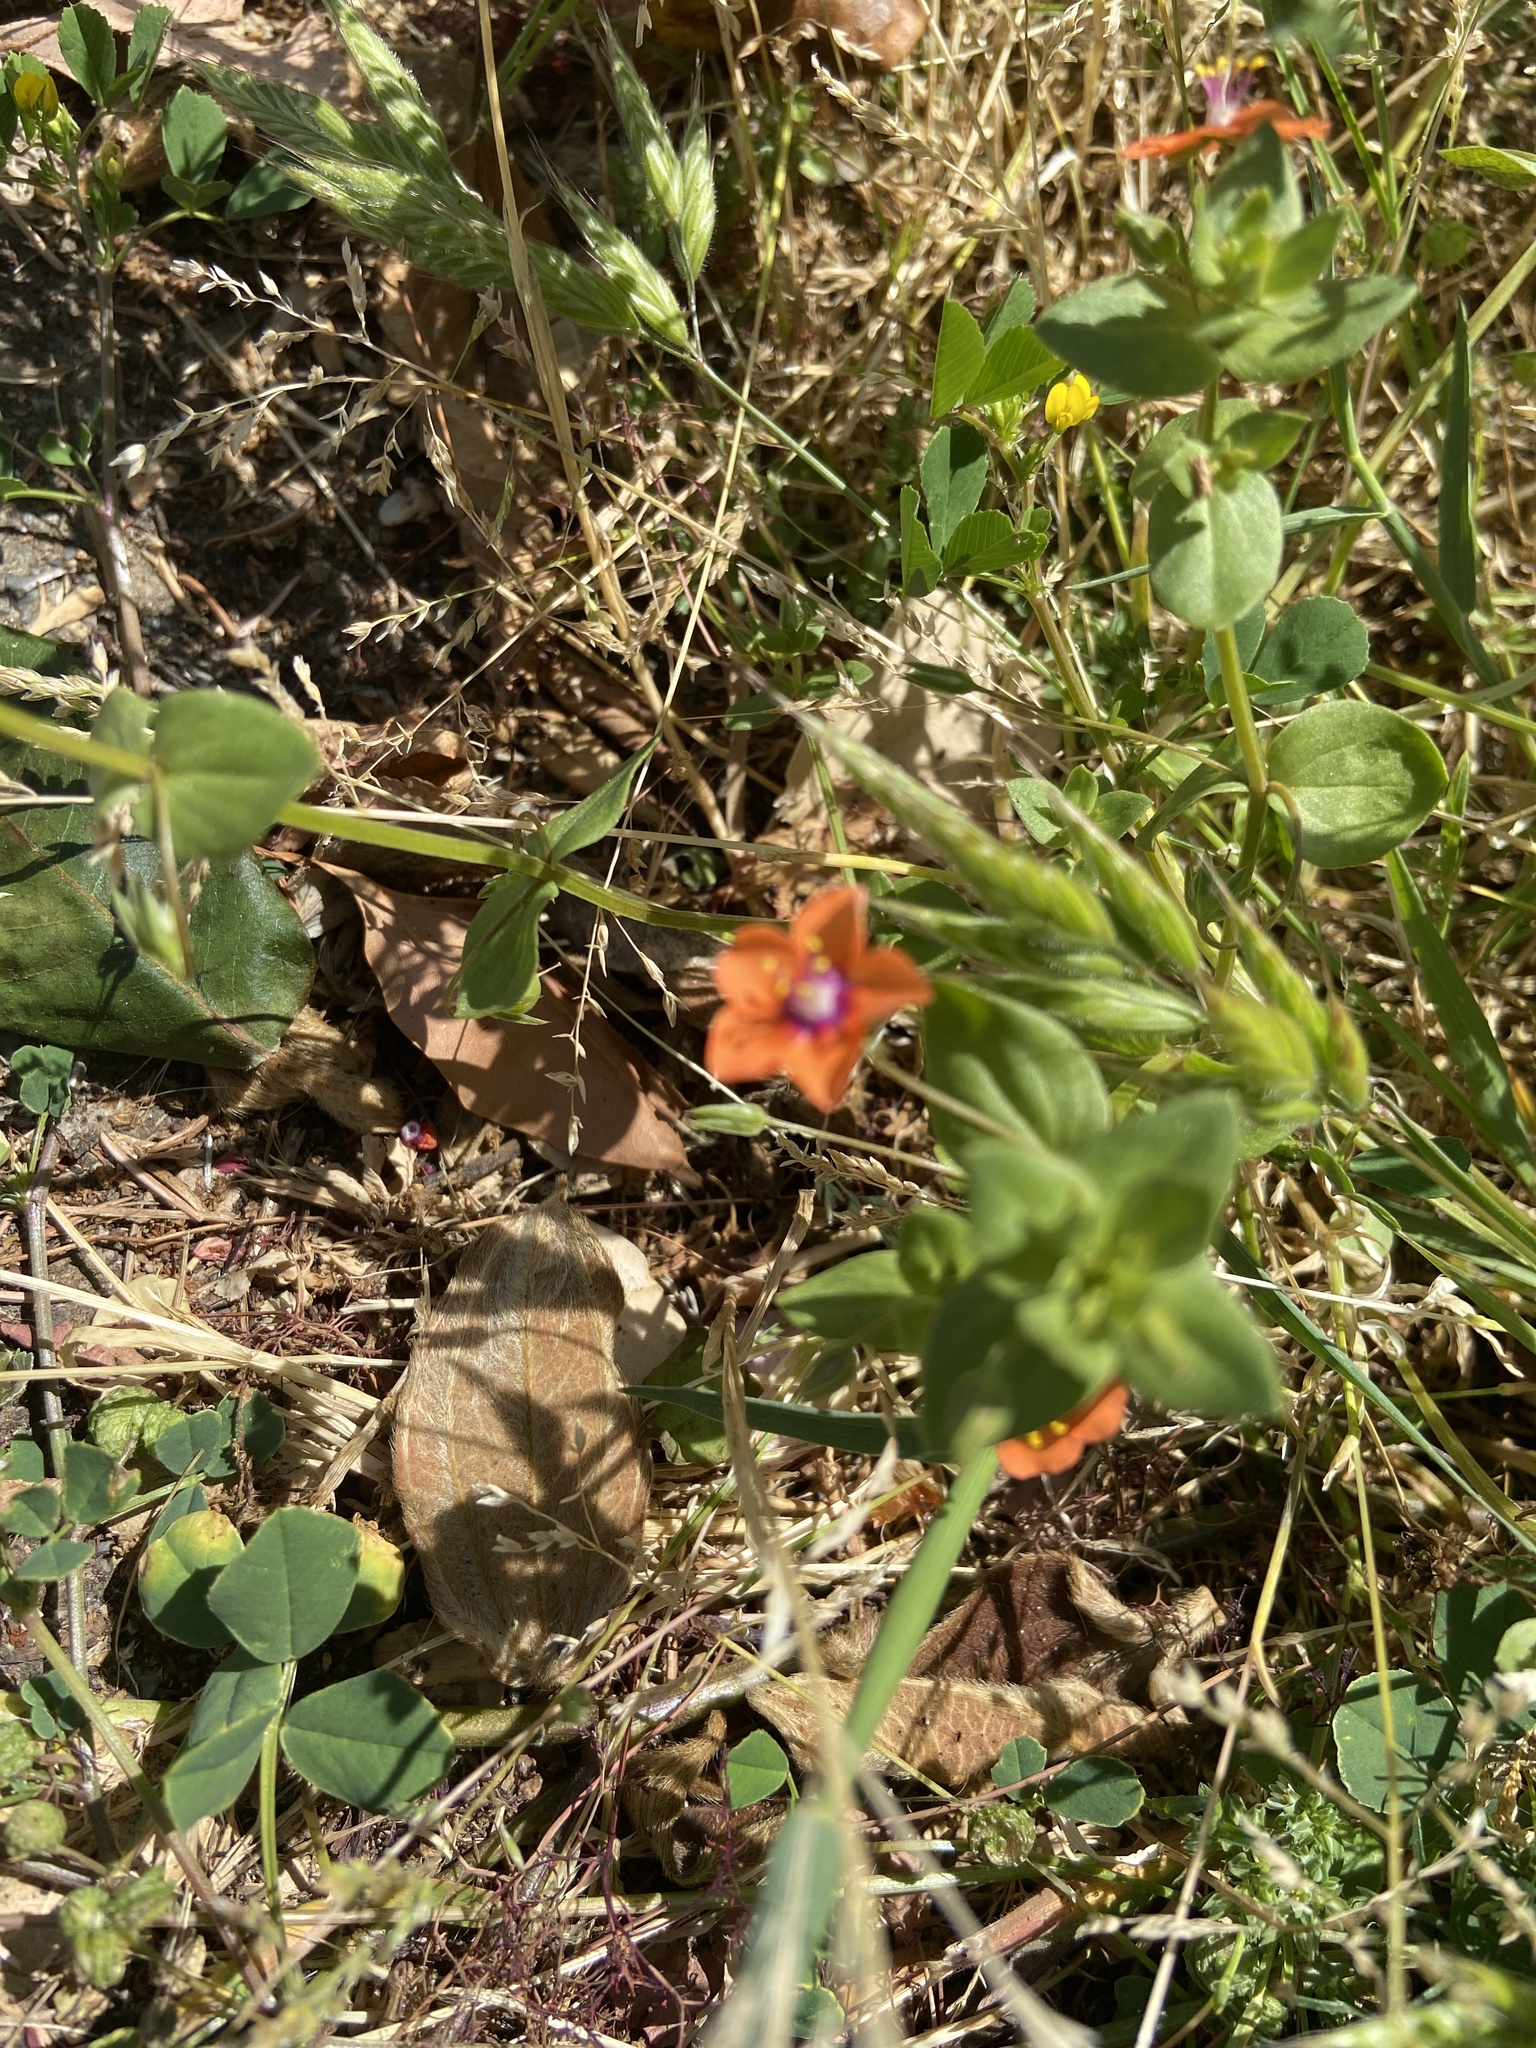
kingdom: Plantae
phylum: Tracheophyta
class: Magnoliopsida
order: Ericales
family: Primulaceae
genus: Lysimachia
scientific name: Lysimachia arvensis
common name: Scarlet pimpernel
